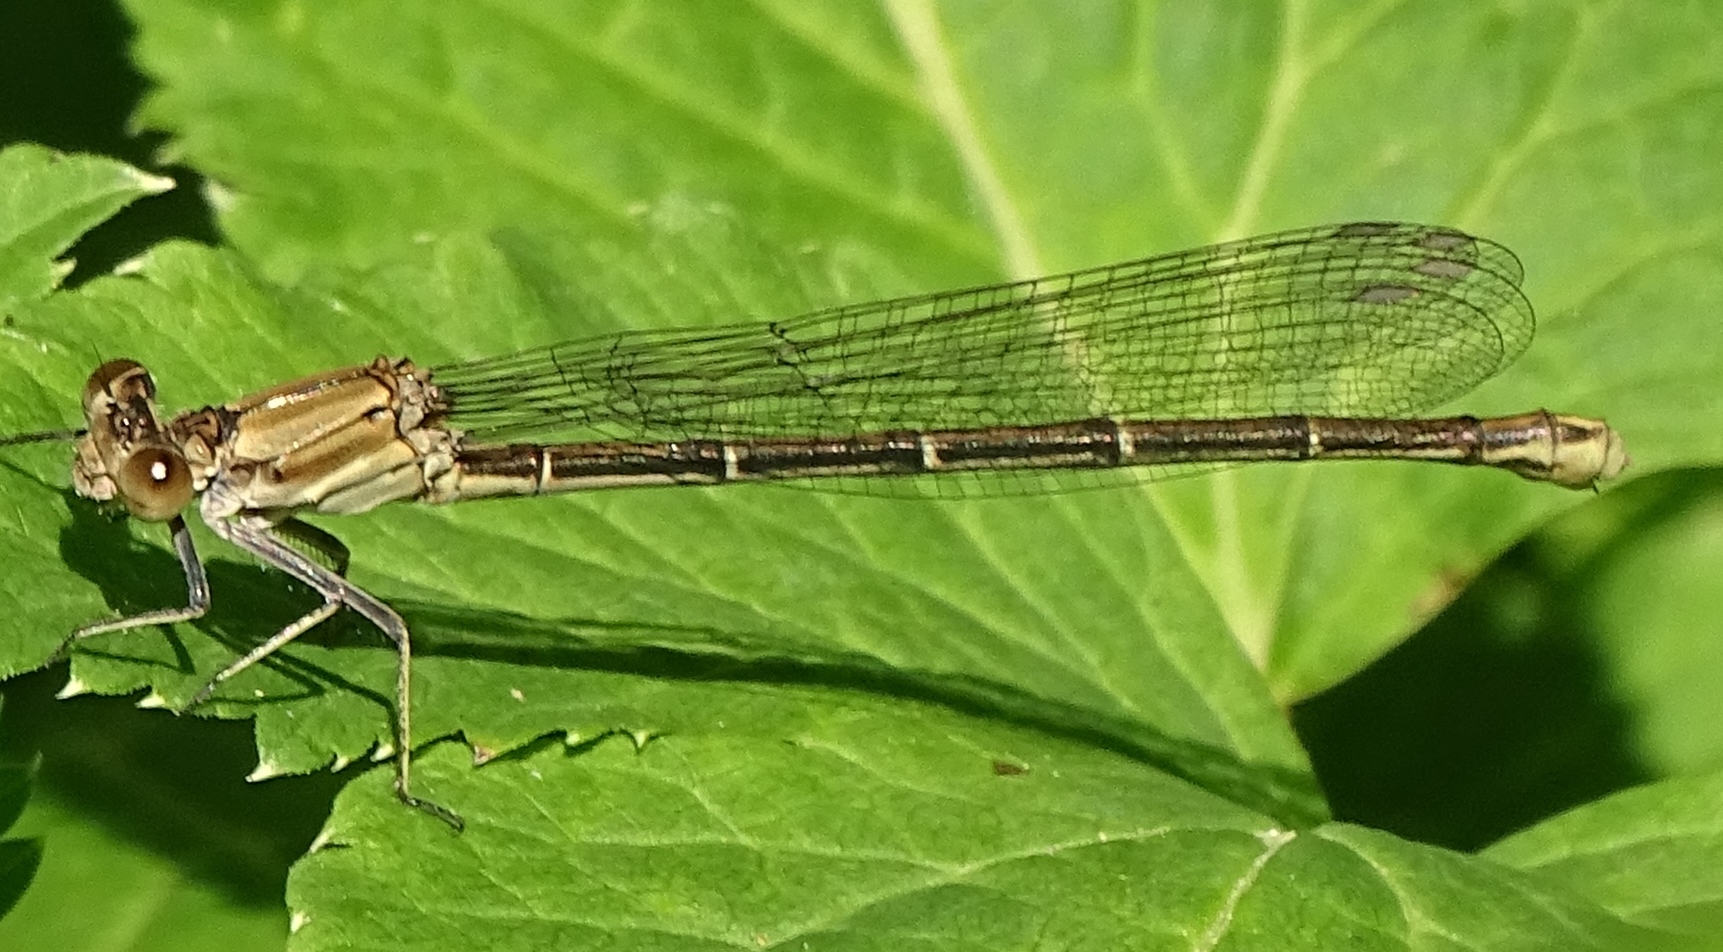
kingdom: Animalia
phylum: Arthropoda
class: Insecta
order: Odonata
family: Coenagrionidae
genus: Argia
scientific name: Argia moesta
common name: Powdered dancer
